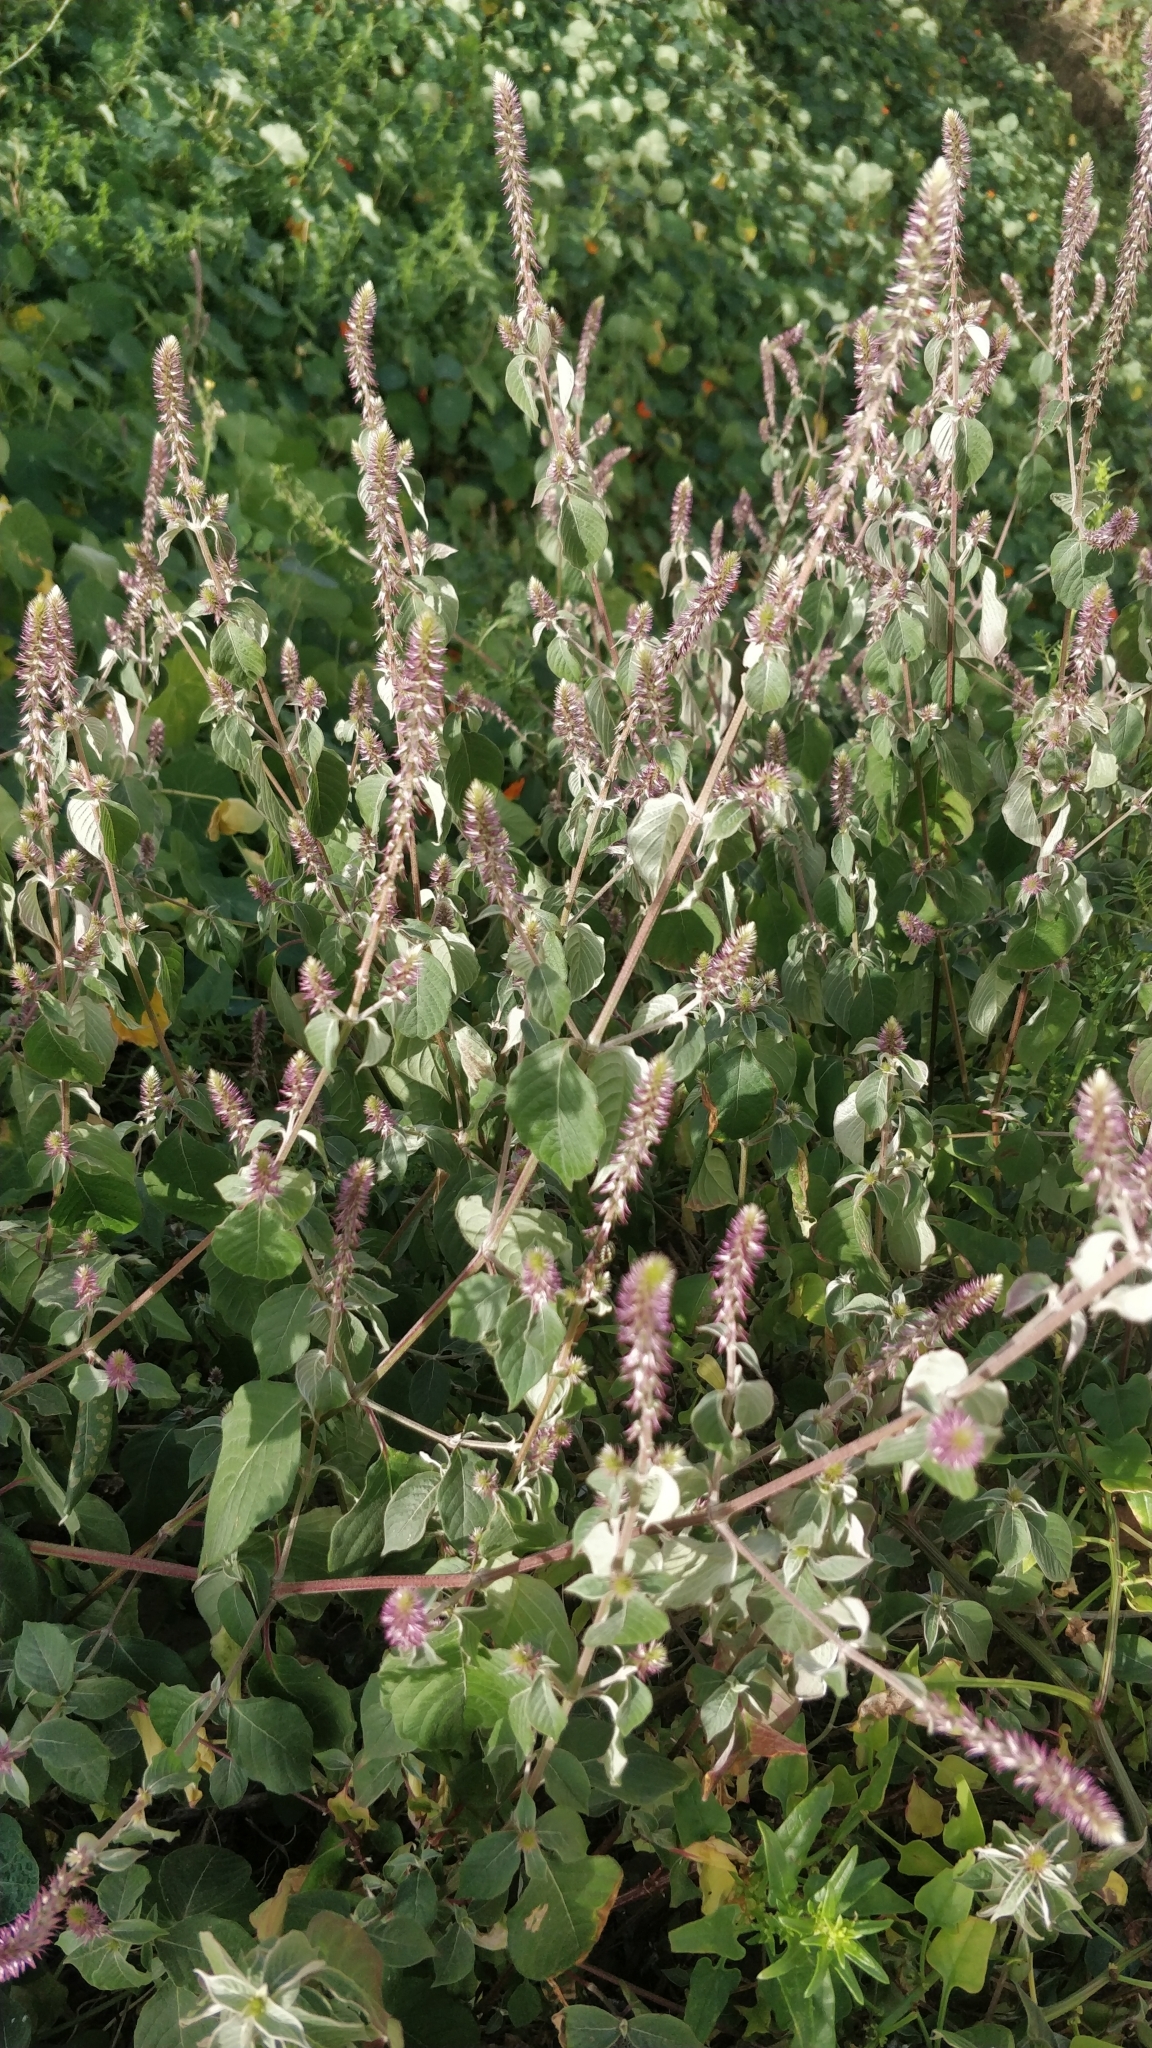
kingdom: Plantae
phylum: Tracheophyta
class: Magnoliopsida
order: Caryophyllales
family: Amaranthaceae
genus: Achyranthes
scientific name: Achyranthes aspera
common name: Devil's horsewhip
